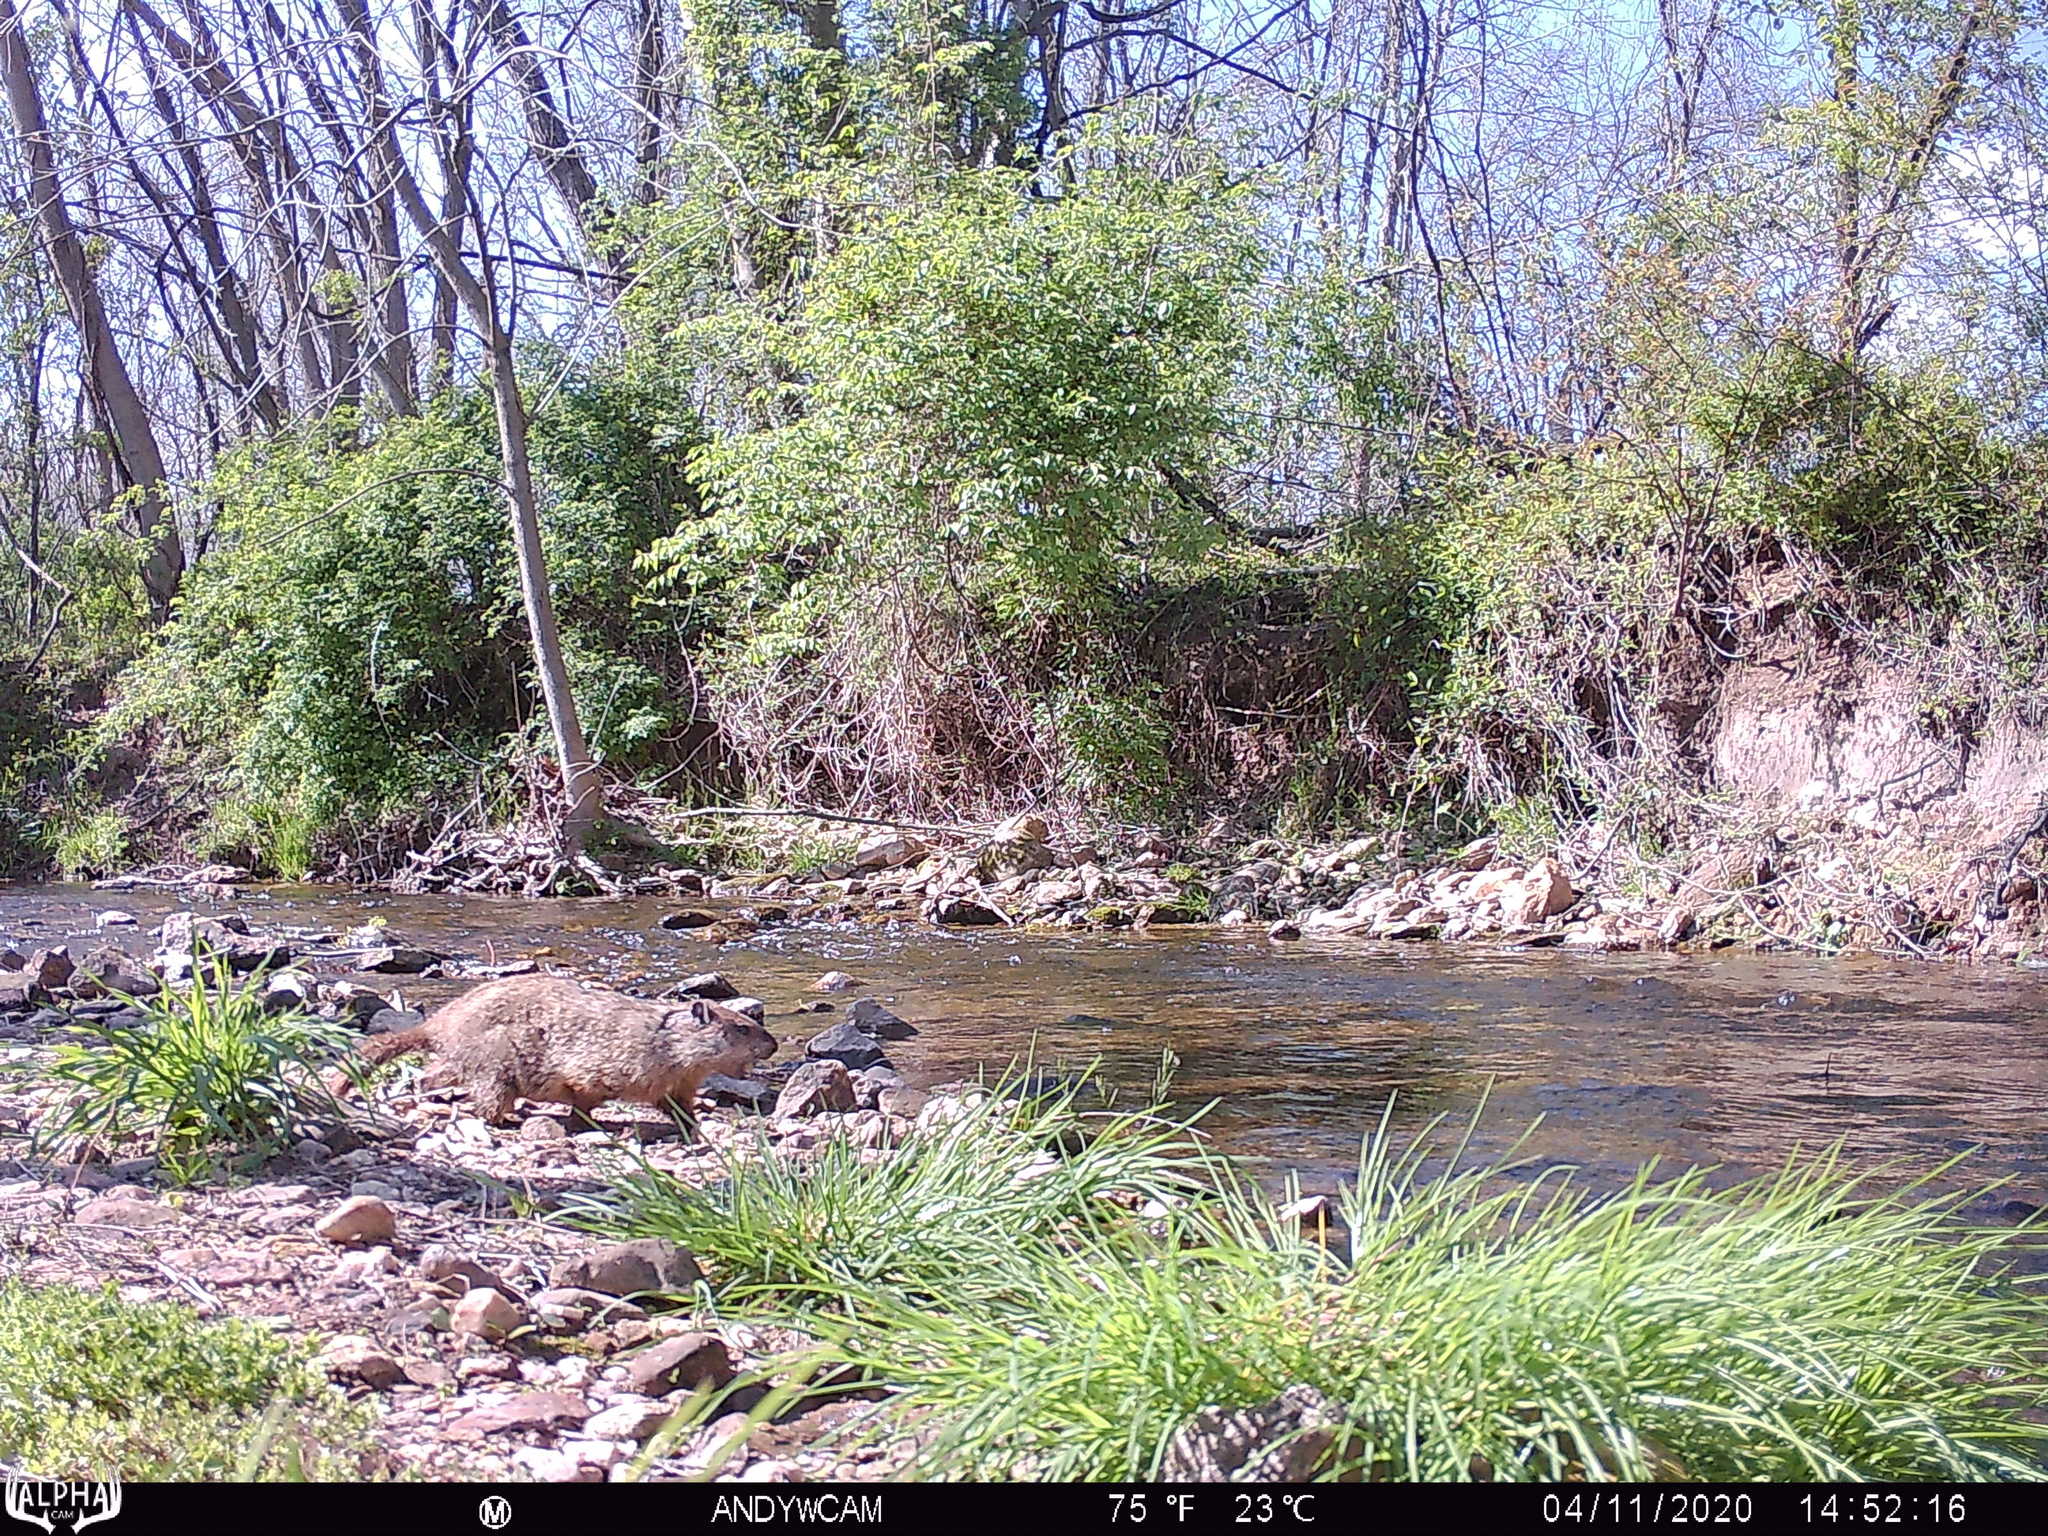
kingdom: Animalia
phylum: Chordata
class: Mammalia
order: Rodentia
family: Sciuridae
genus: Marmota
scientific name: Marmota monax
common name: Groundhog
